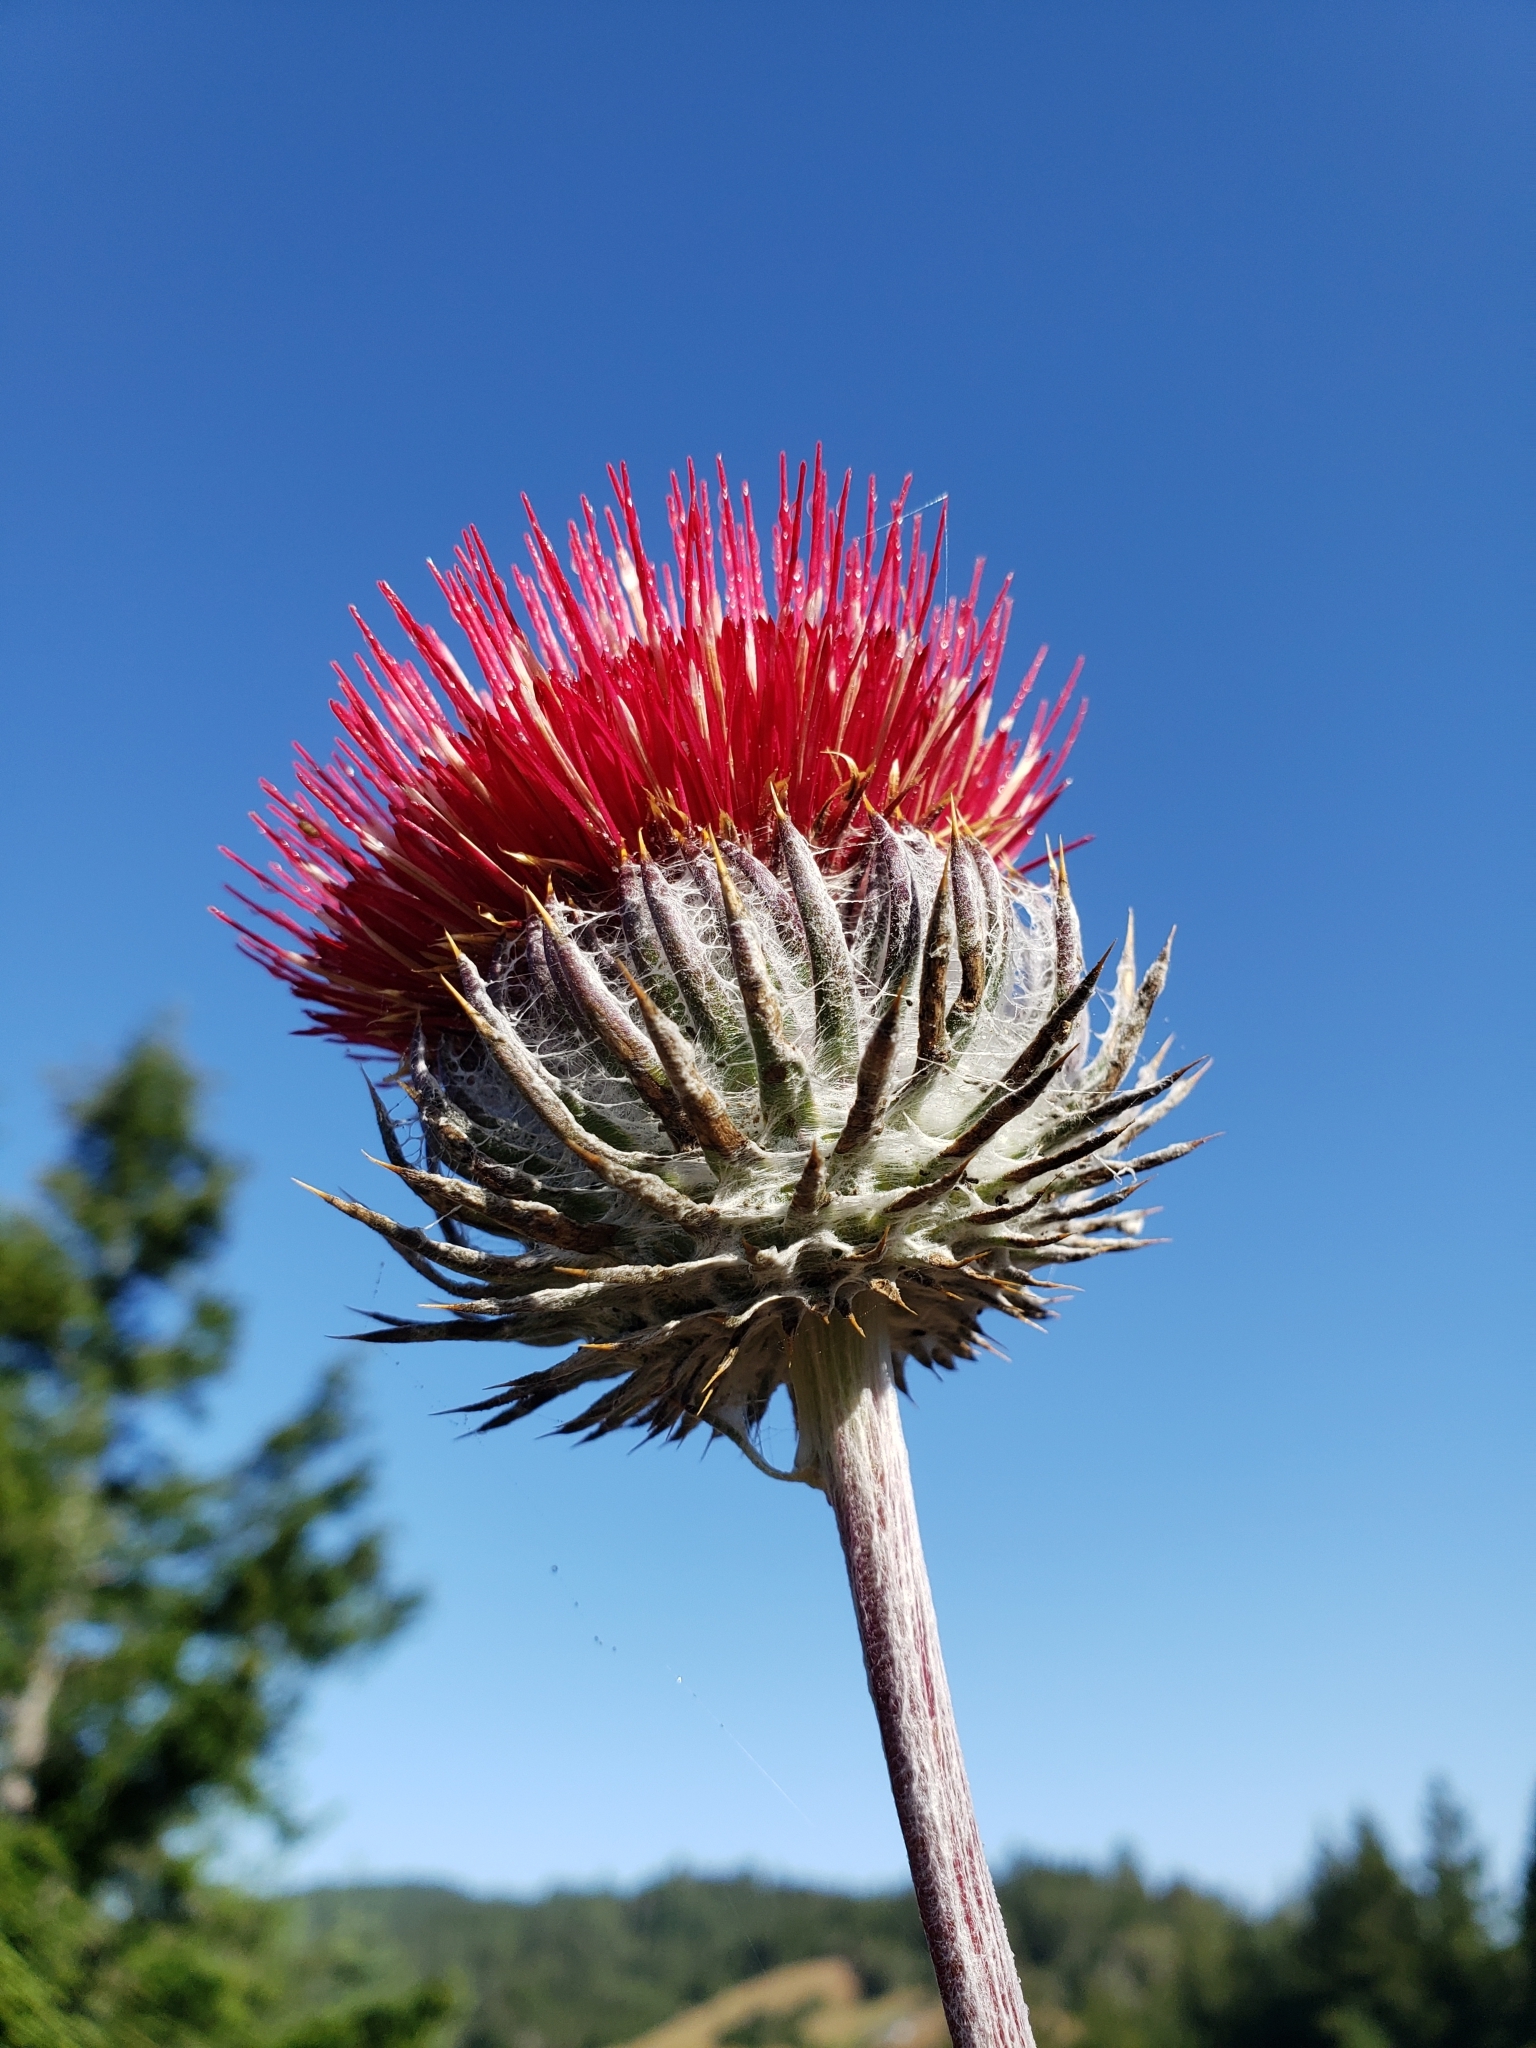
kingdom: Plantae
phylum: Tracheophyta
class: Magnoliopsida
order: Asterales
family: Asteraceae
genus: Cirsium
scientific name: Cirsium occidentale
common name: Western thistle
